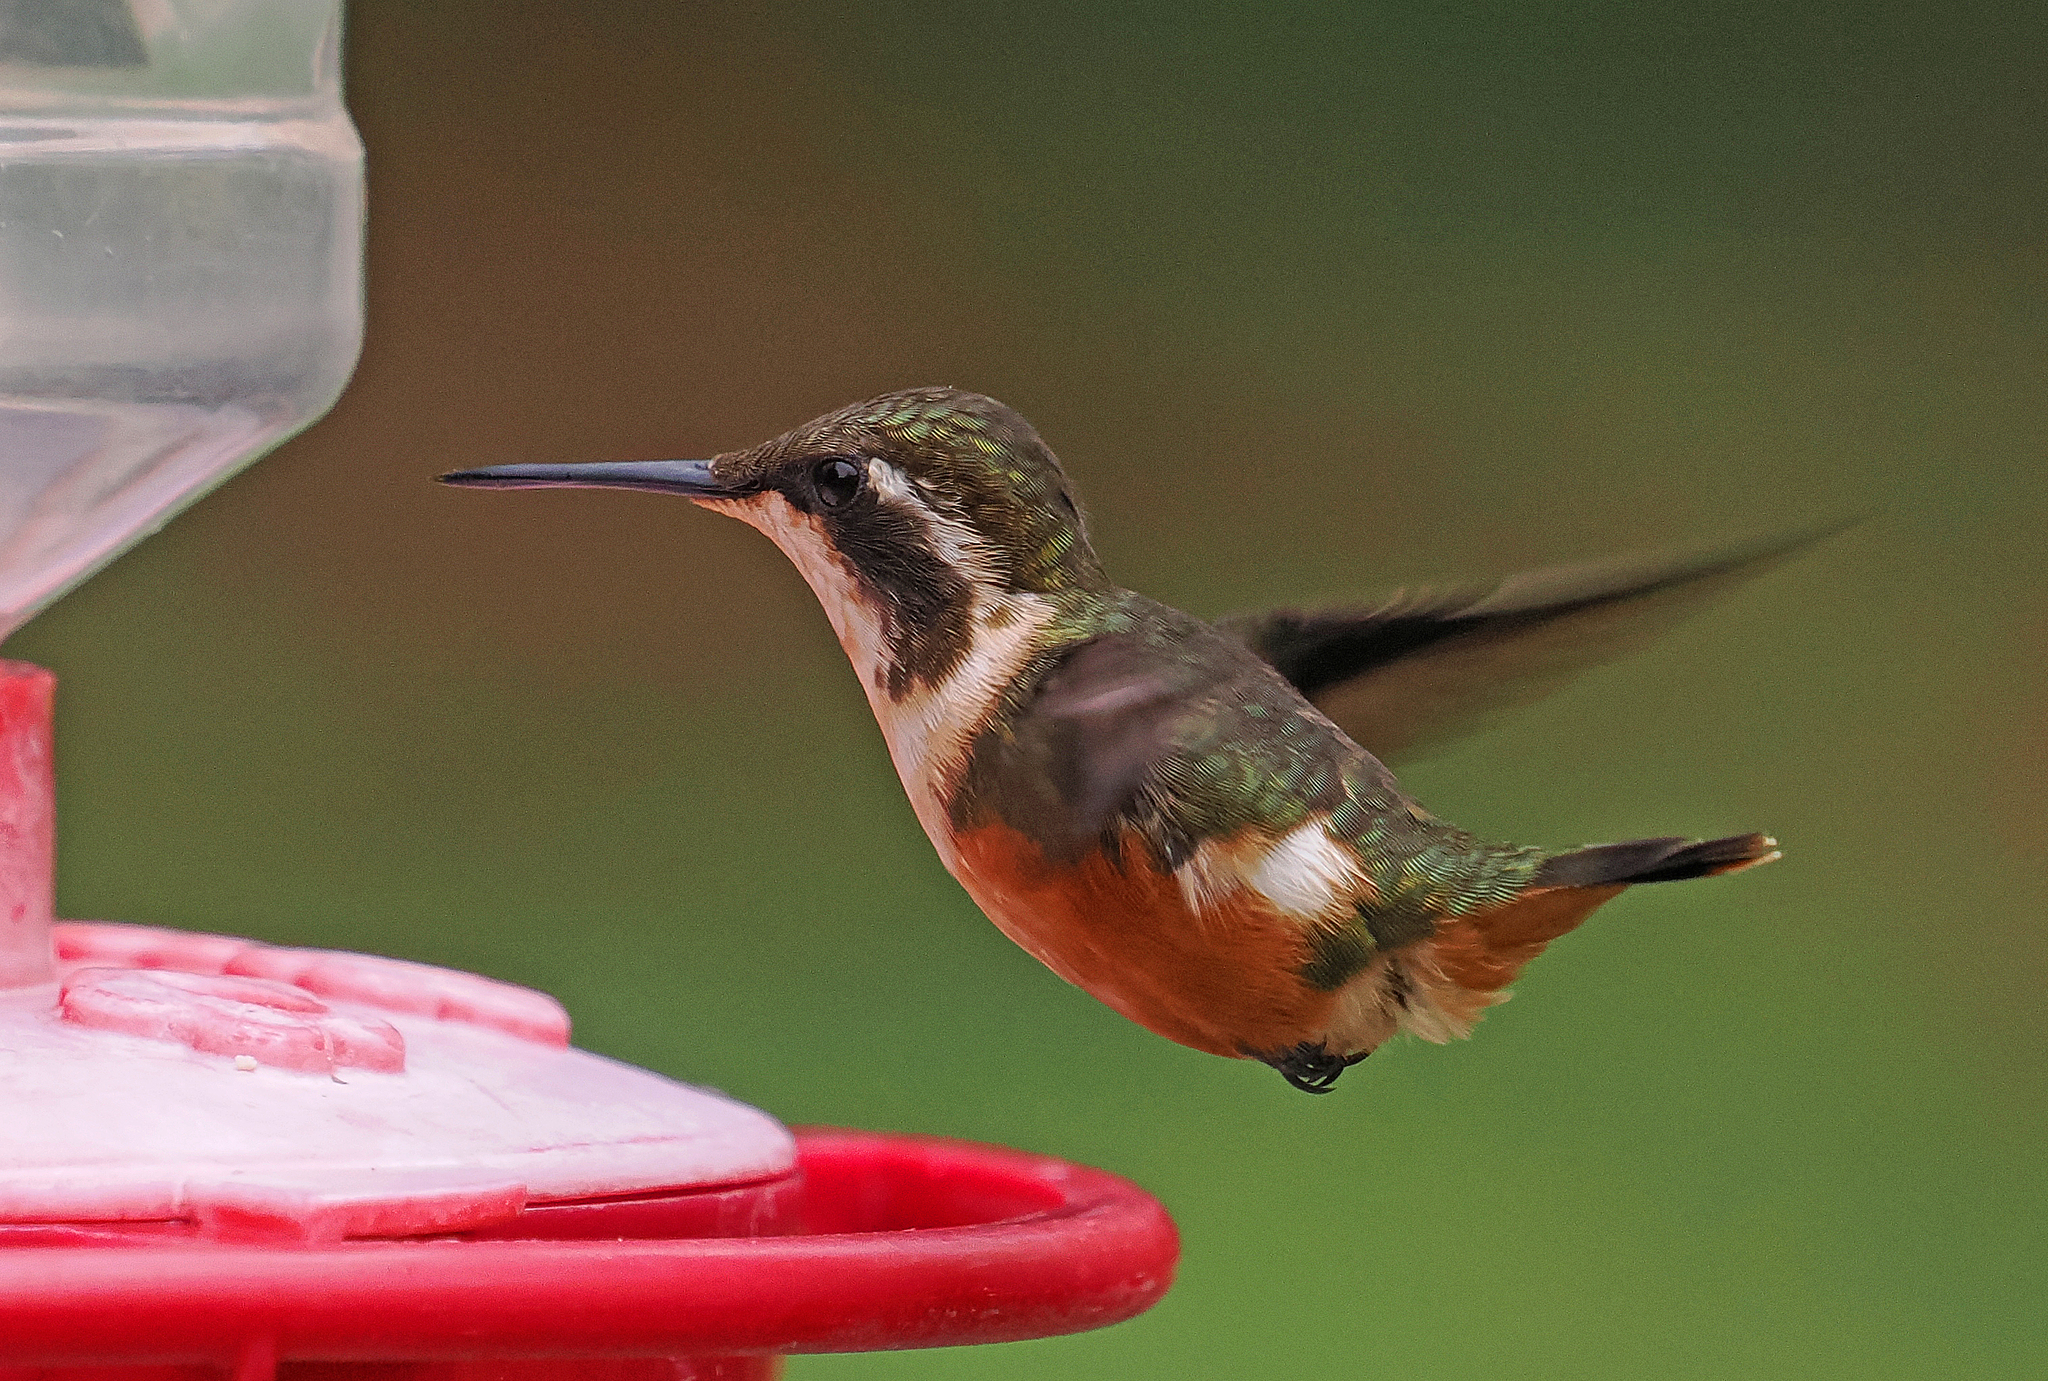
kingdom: Animalia
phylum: Chordata
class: Aves
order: Apodiformes
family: Trochilidae
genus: Chaetocercus
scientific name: Chaetocercus mulsant
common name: White-bellied woodstar
